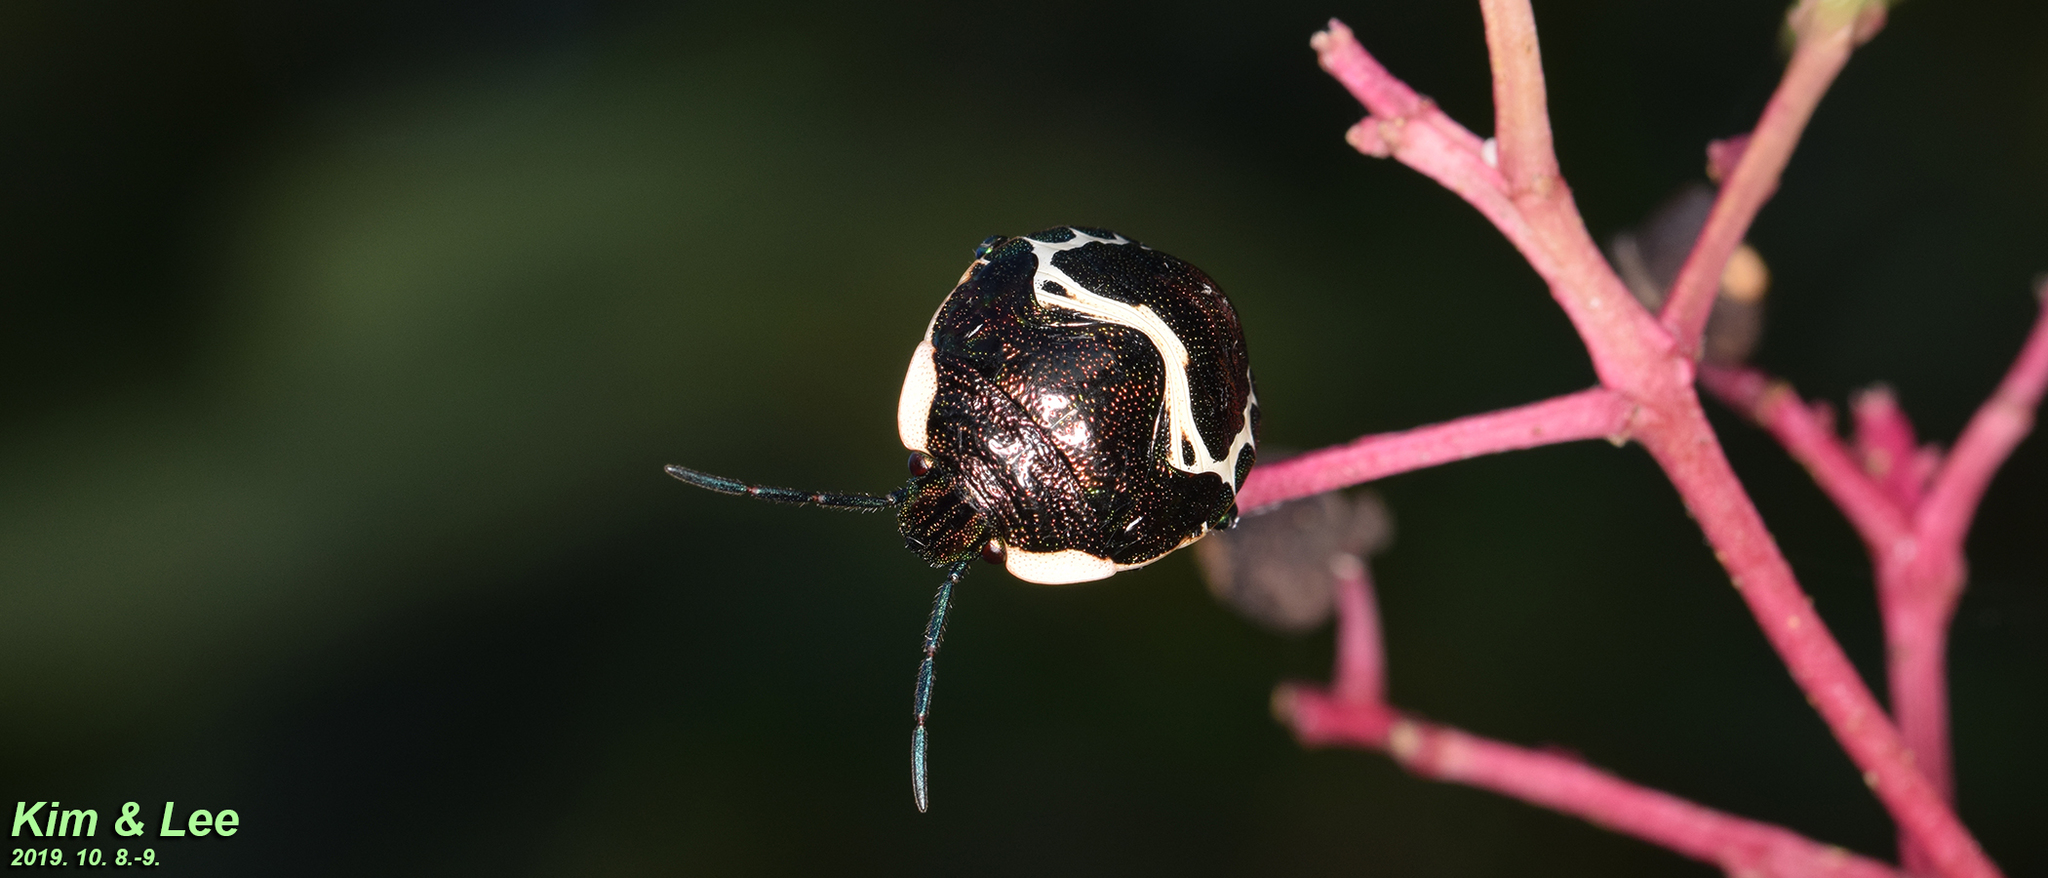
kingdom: Animalia
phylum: Arthropoda
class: Insecta
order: Hemiptera
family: Scutelleridae
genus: Poecilocoris
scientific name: Poecilocoris lewisi
